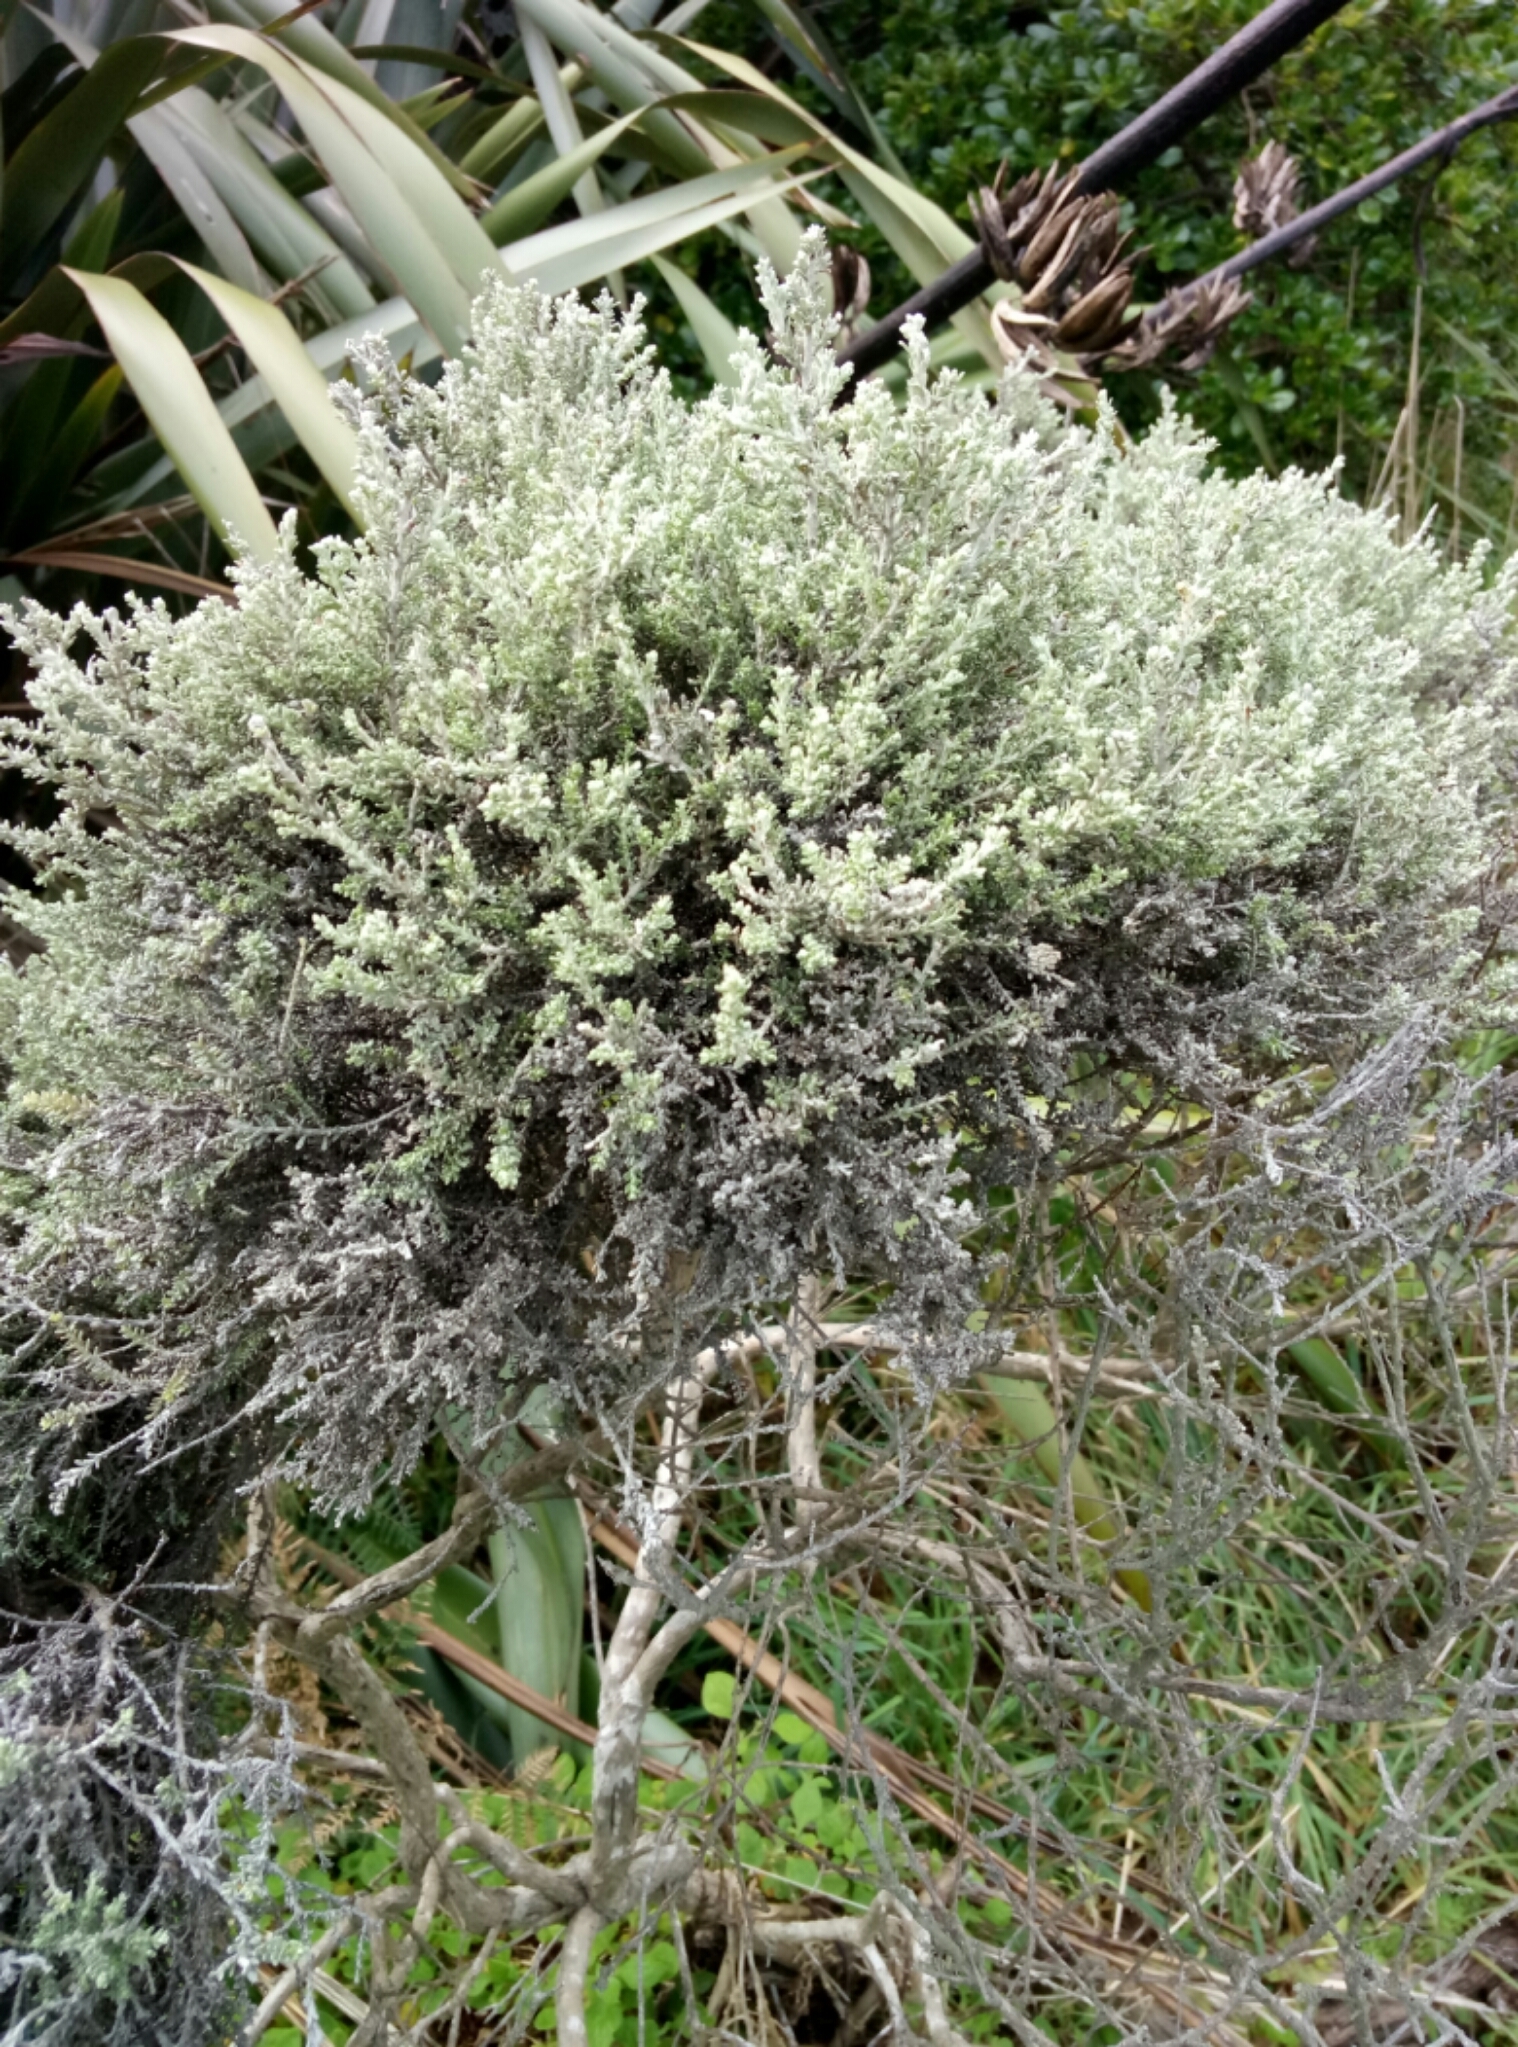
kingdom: Plantae
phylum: Tracheophyta
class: Magnoliopsida
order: Asterales
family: Asteraceae
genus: Ozothamnus
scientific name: Ozothamnus leptophyllus
